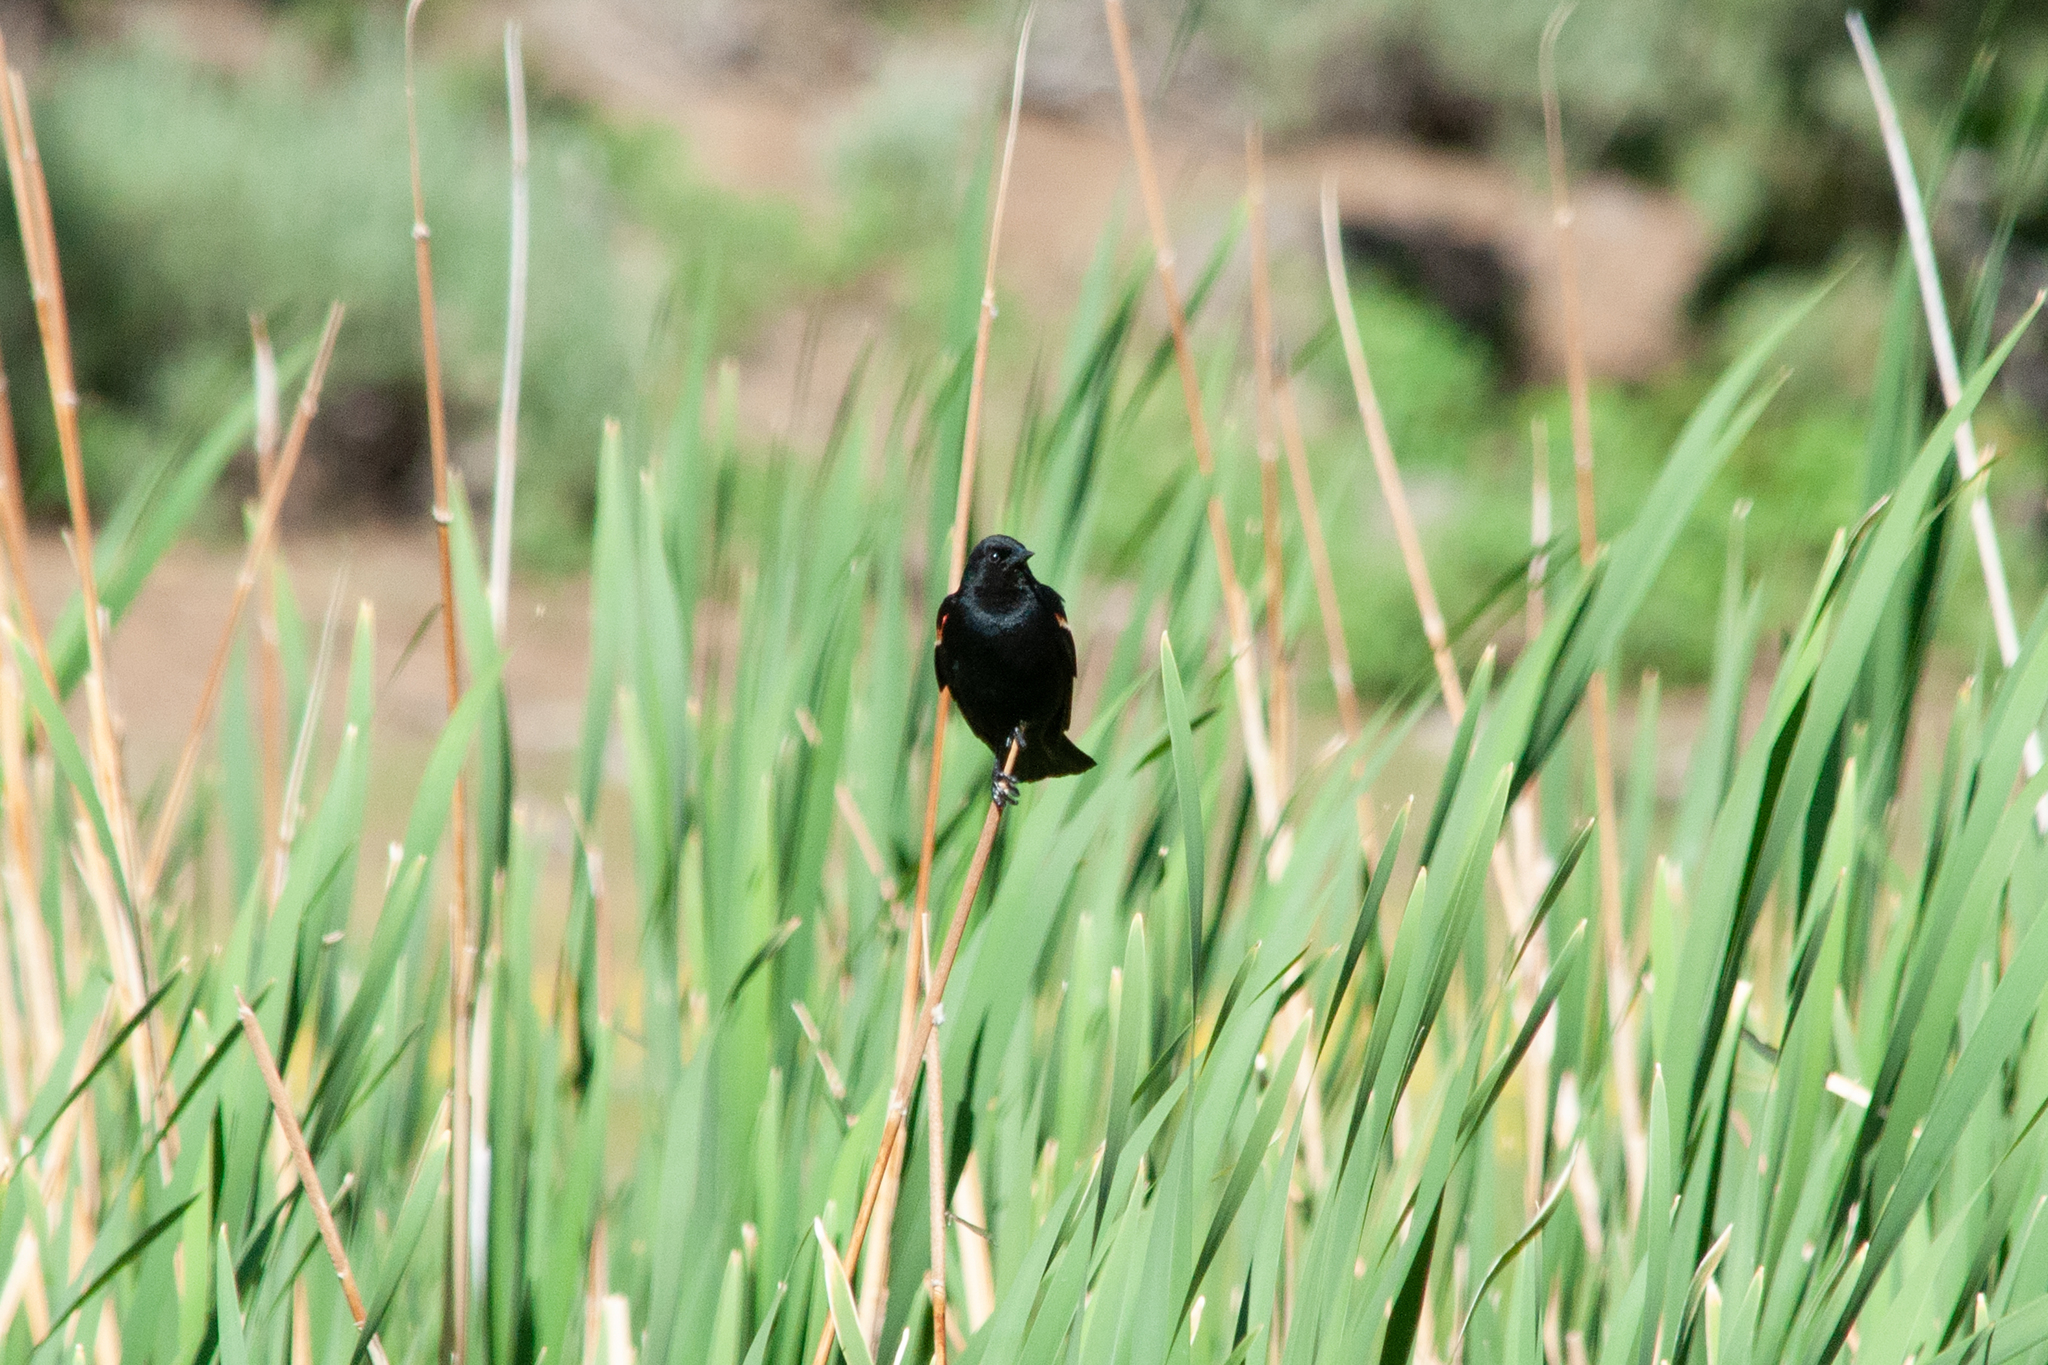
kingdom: Animalia
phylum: Chordata
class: Aves
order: Passeriformes
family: Icteridae
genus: Agelaius
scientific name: Agelaius phoeniceus
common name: Red-winged blackbird
